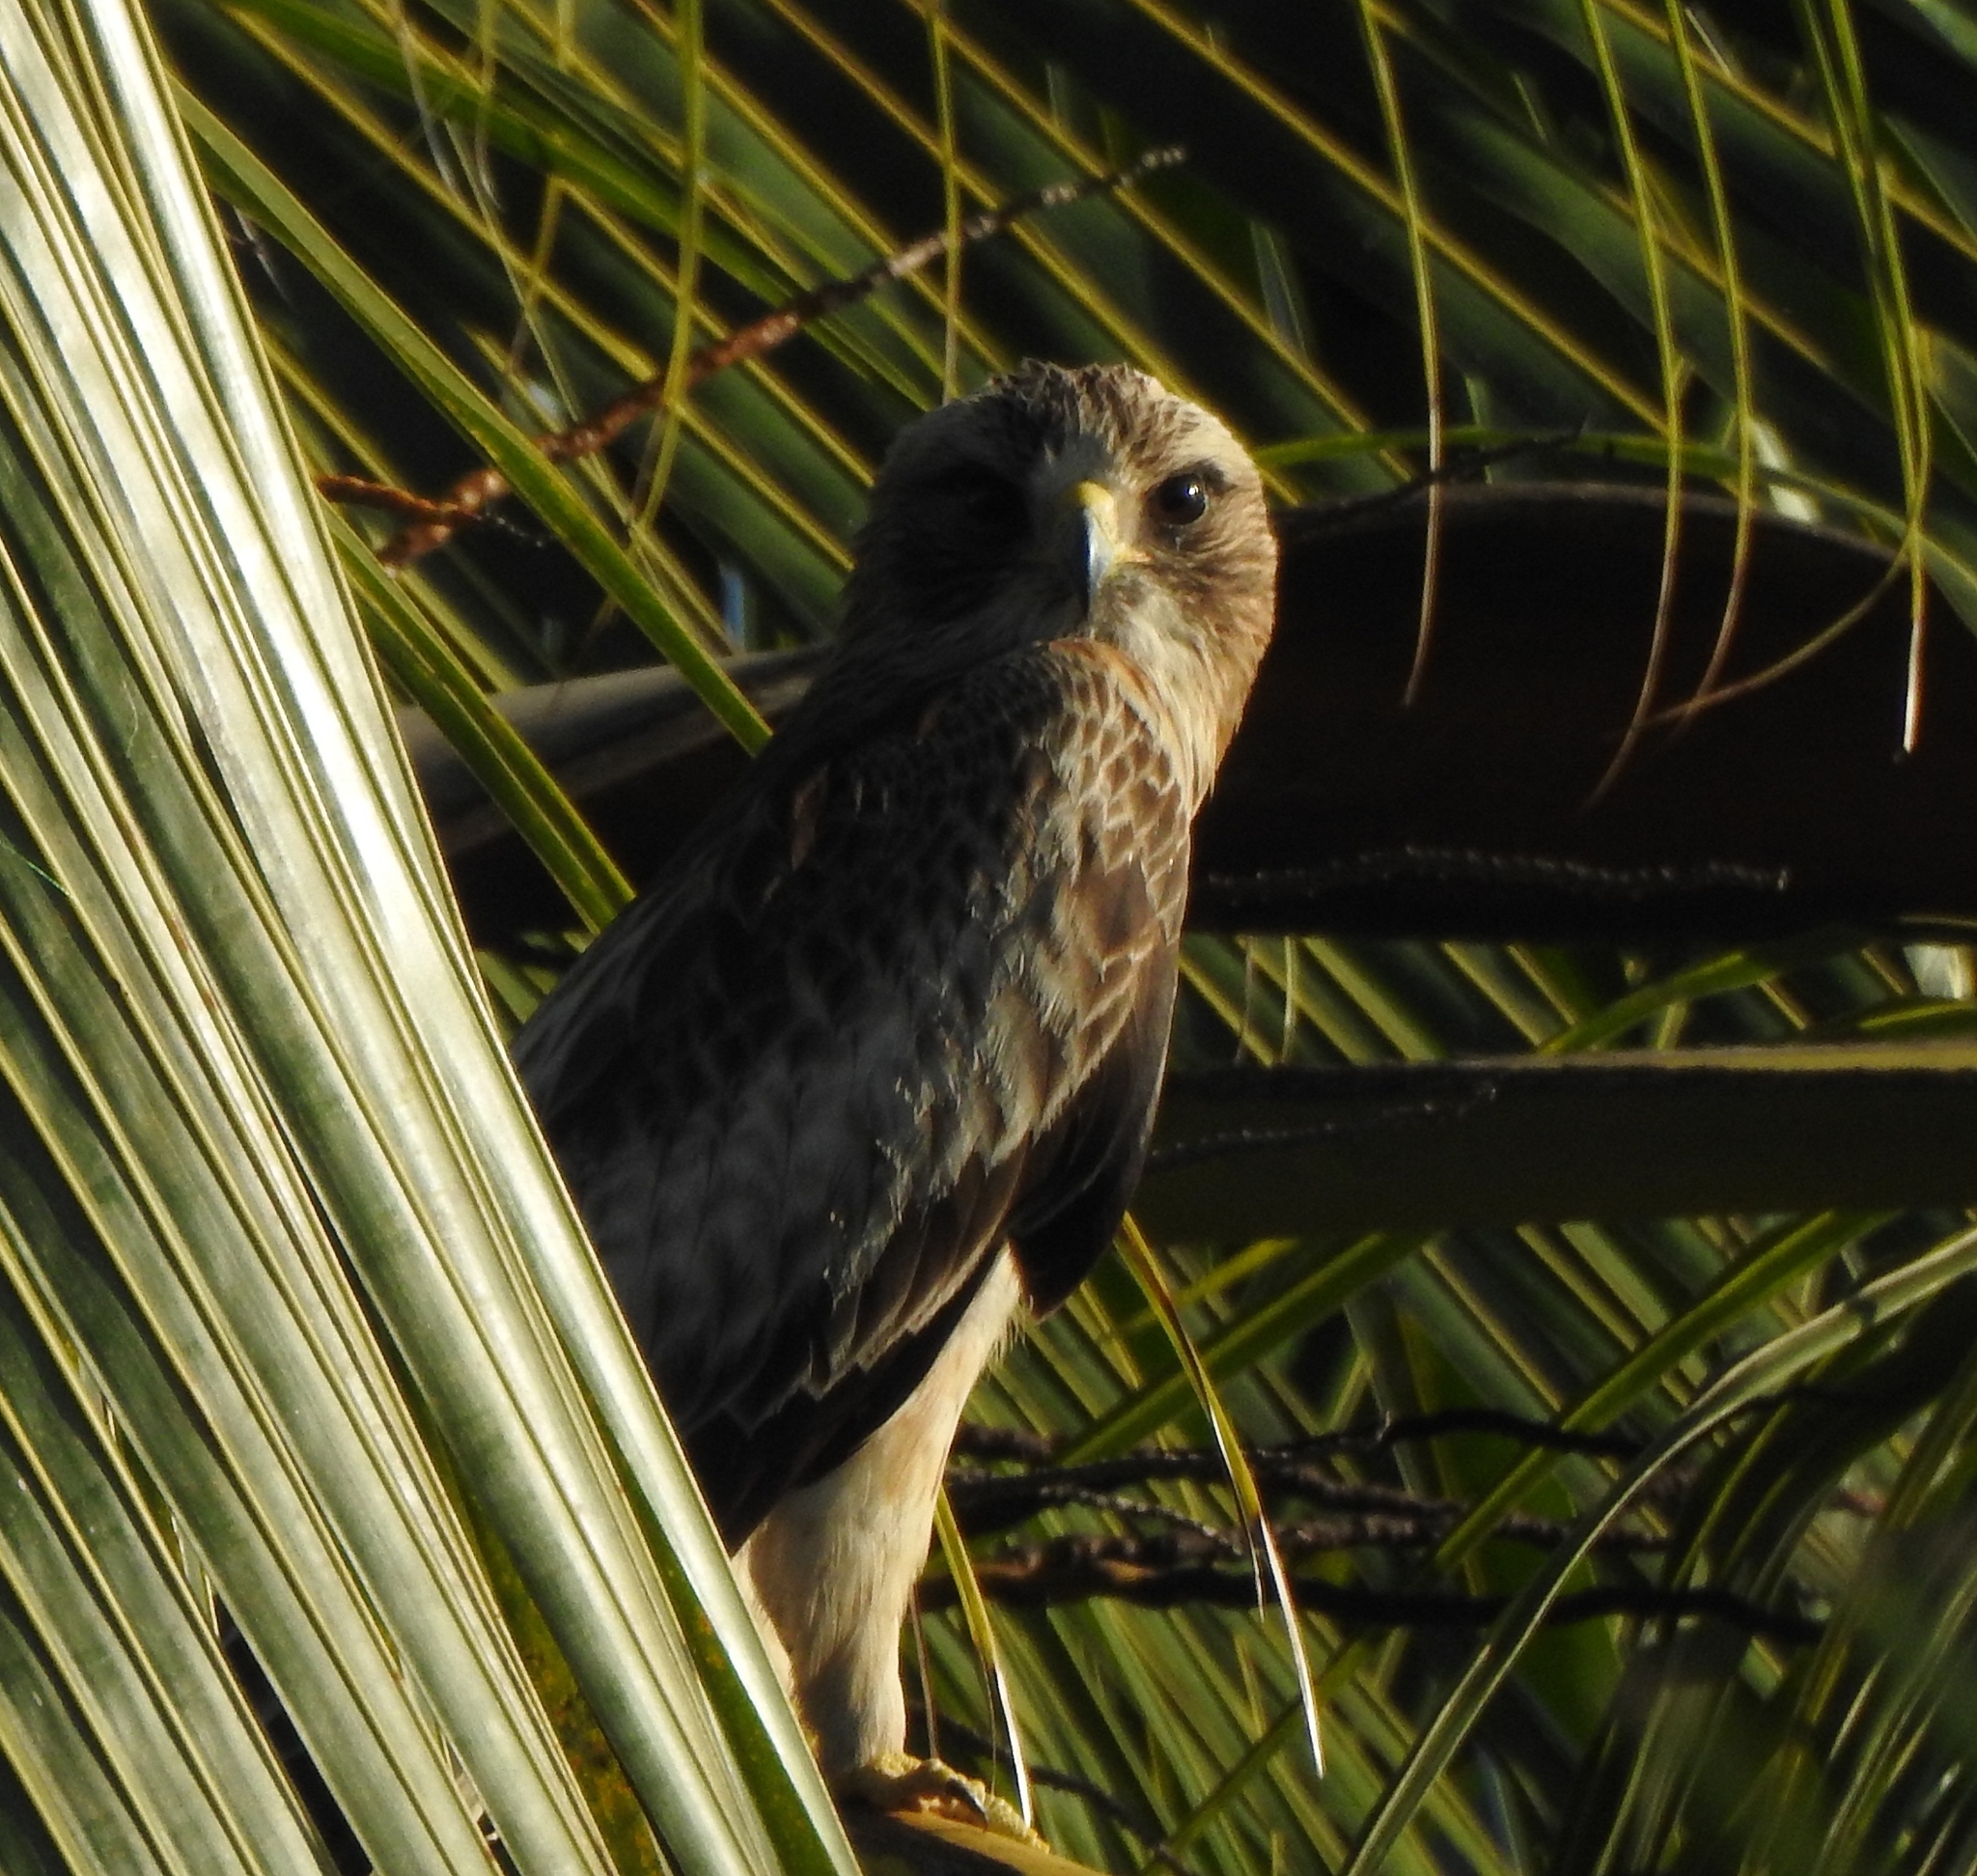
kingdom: Animalia
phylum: Chordata
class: Aves
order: Accipitriformes
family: Accipitridae
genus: Hieraaetus
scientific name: Hieraaetus pennatus
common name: Booted eagle
